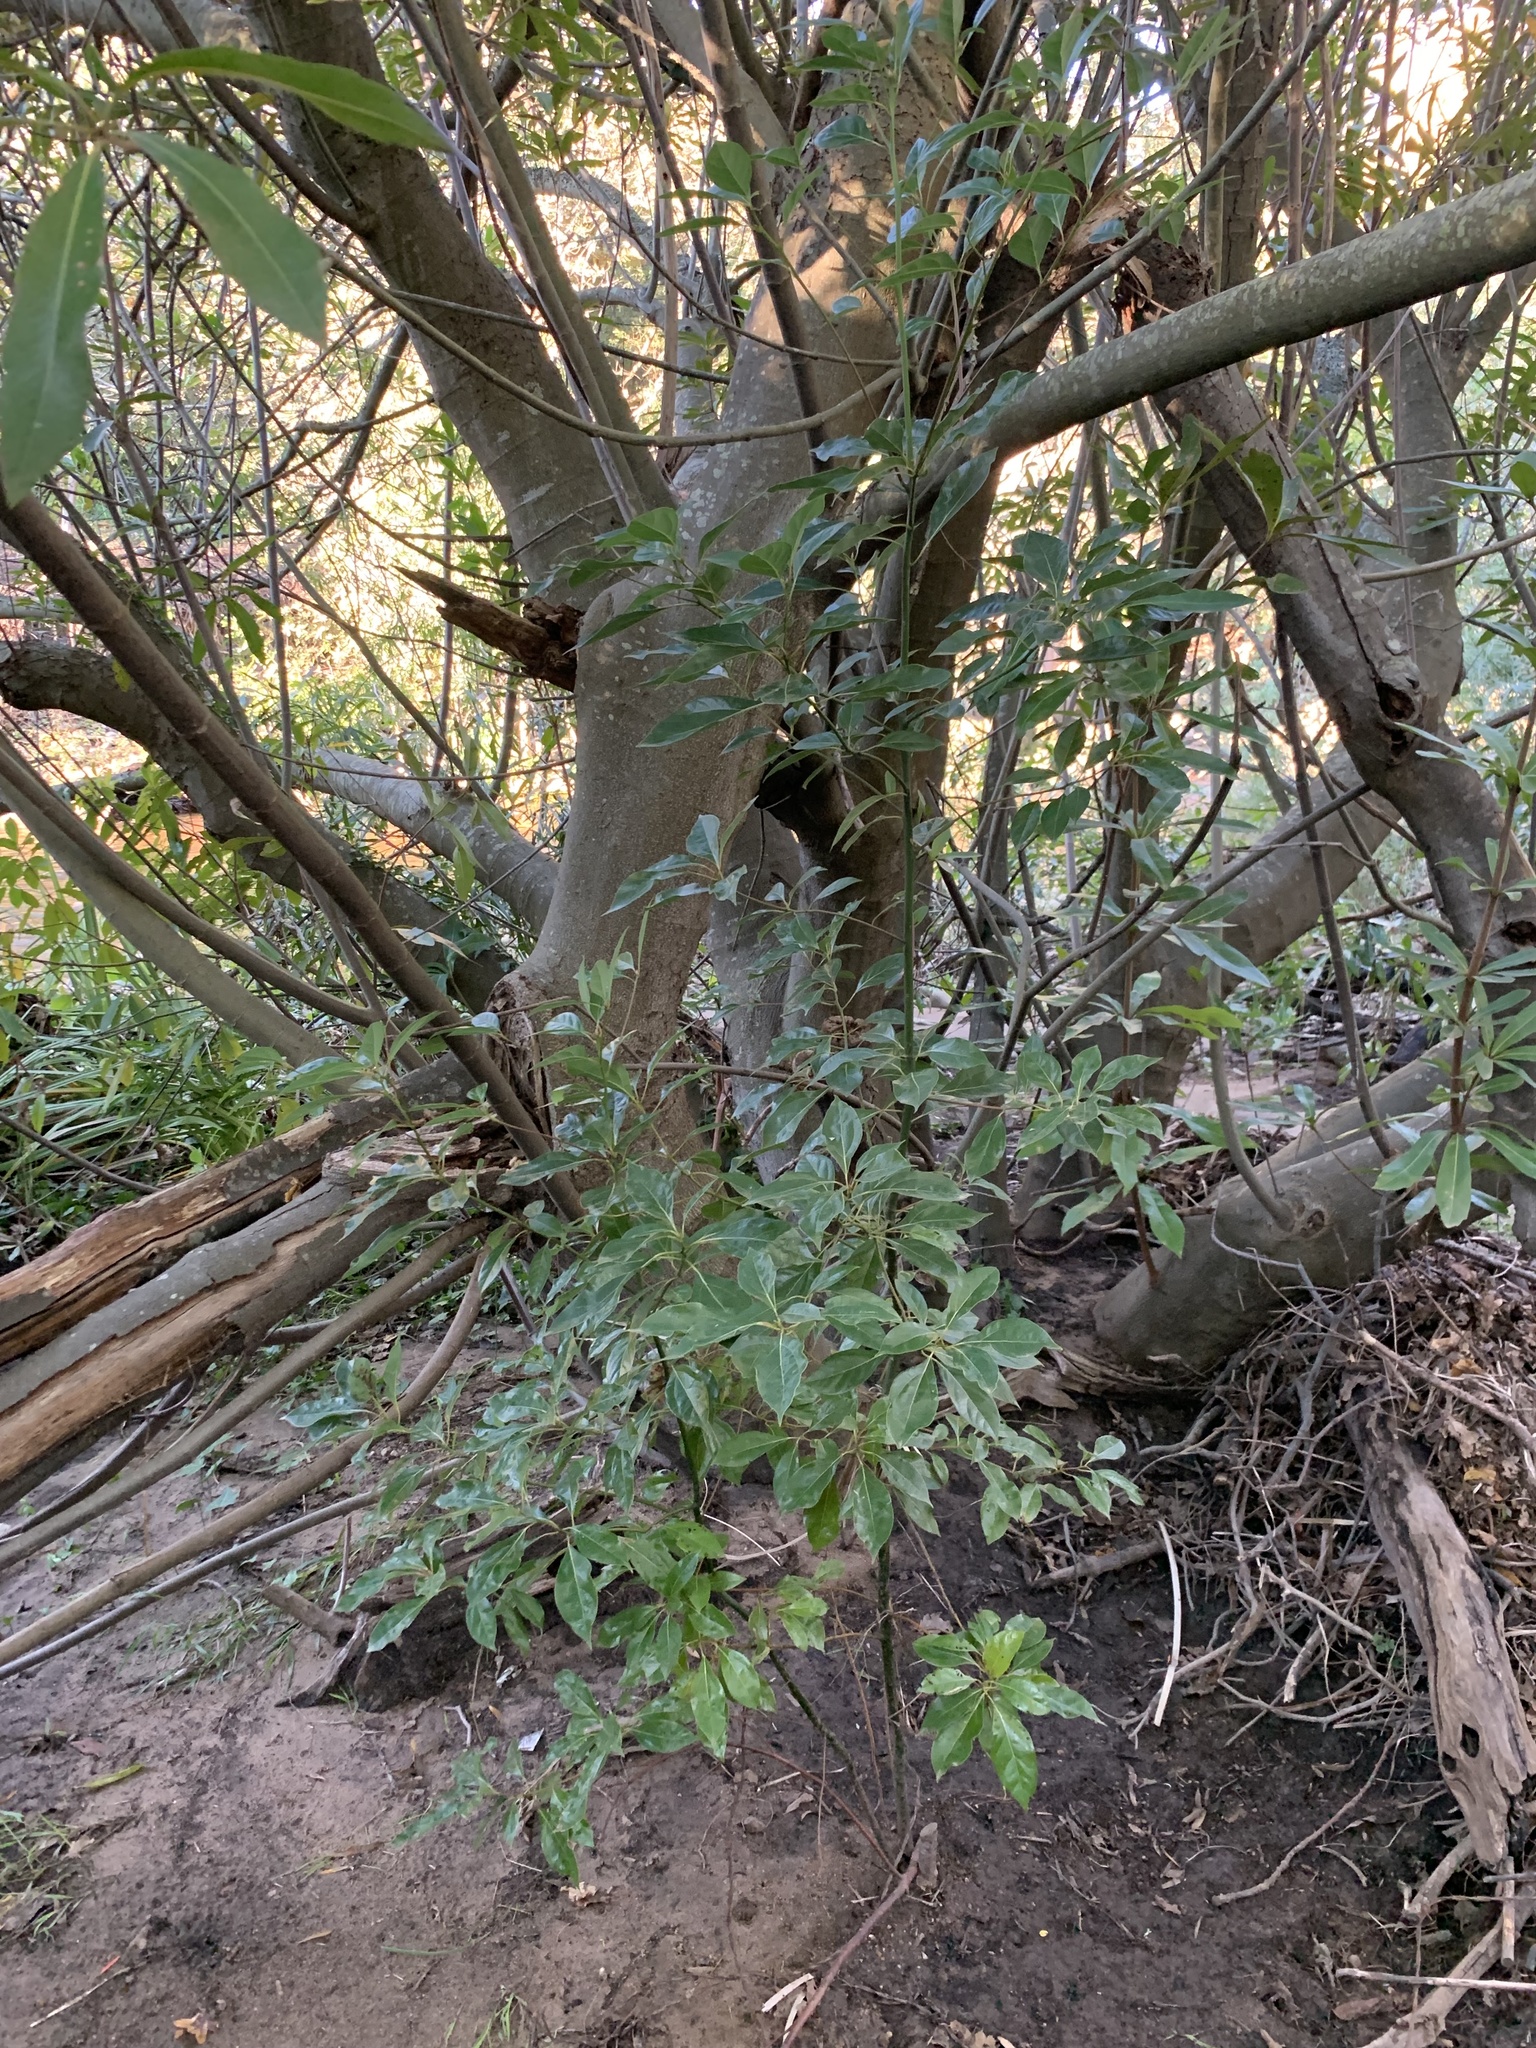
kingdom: Plantae
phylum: Tracheophyta
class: Magnoliopsida
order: Laurales
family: Lauraceae
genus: Cinnamomum
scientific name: Cinnamomum camphora
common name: Camphortree
